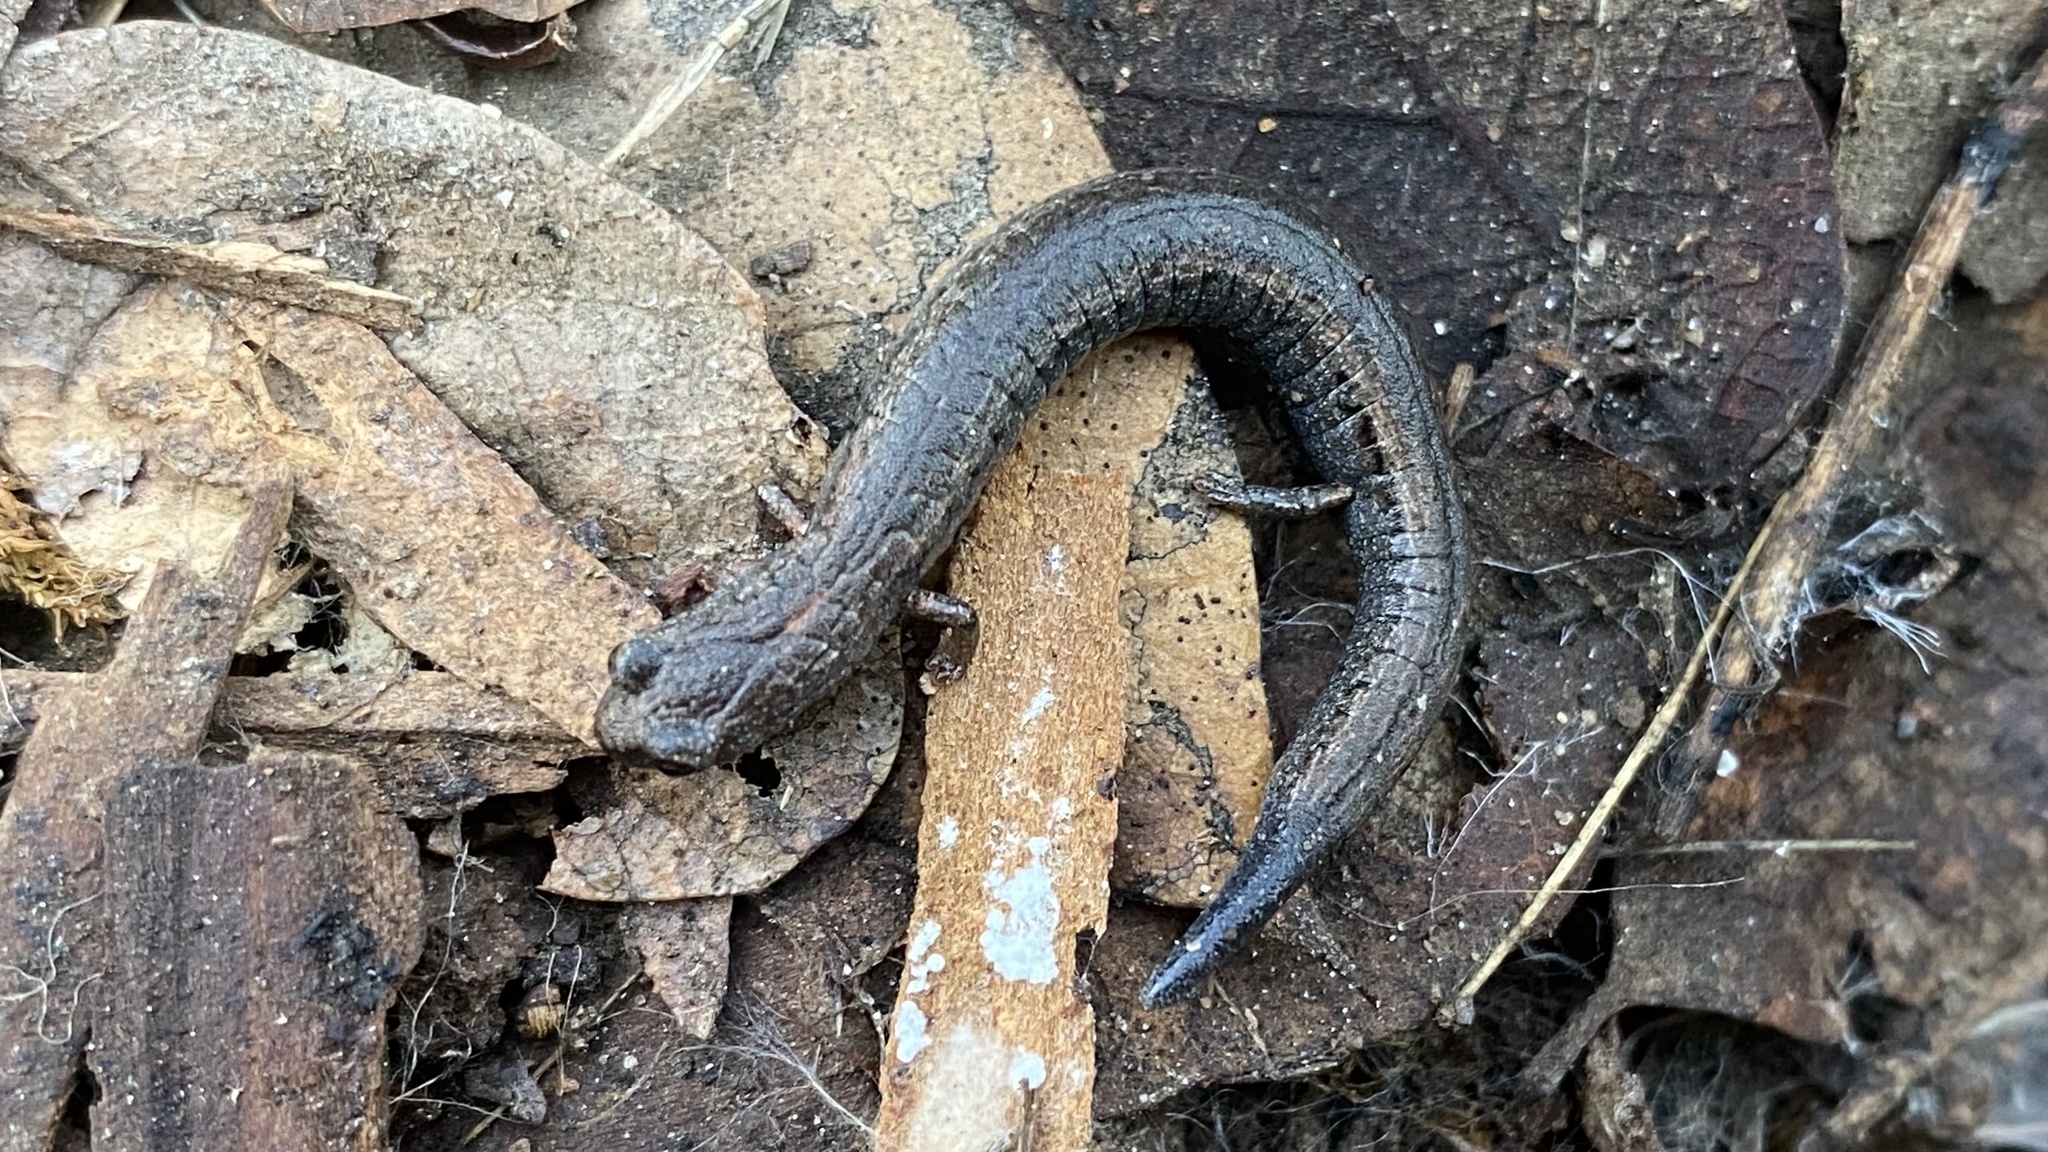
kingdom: Animalia
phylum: Chordata
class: Amphibia
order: Caudata
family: Plethodontidae
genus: Batrachoseps
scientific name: Batrachoseps gregarius
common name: Gregarious slender salamander
